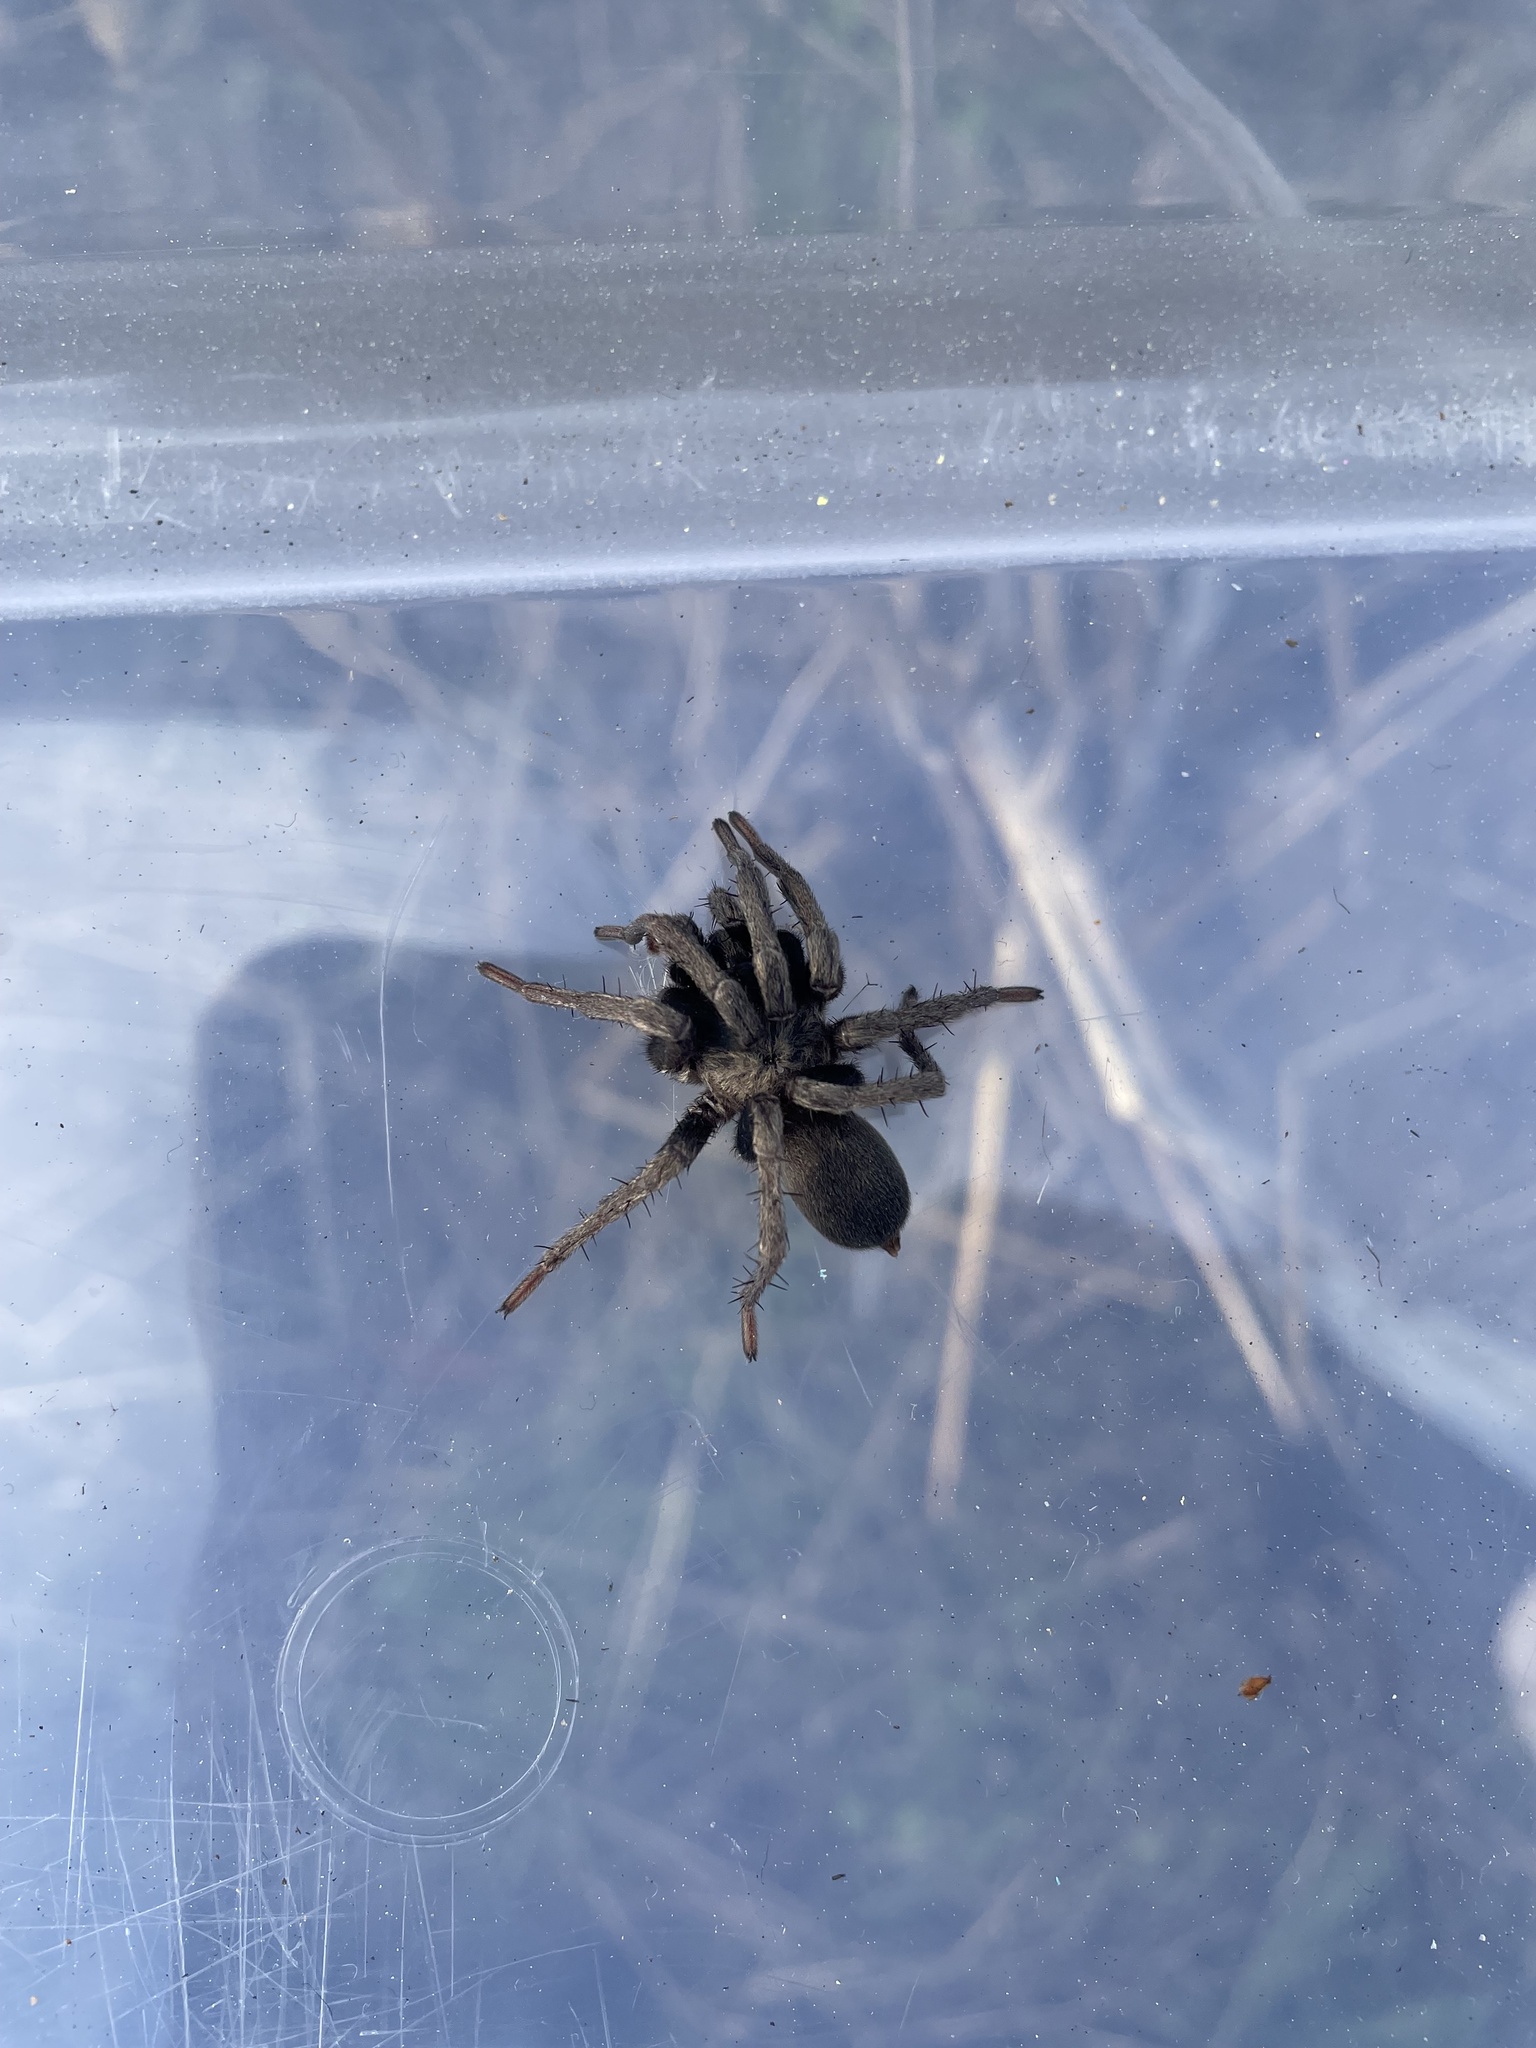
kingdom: Animalia
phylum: Arthropoda
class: Arachnida
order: Araneae
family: Nemesiidae
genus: Calisoga
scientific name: Calisoga longitarsis
